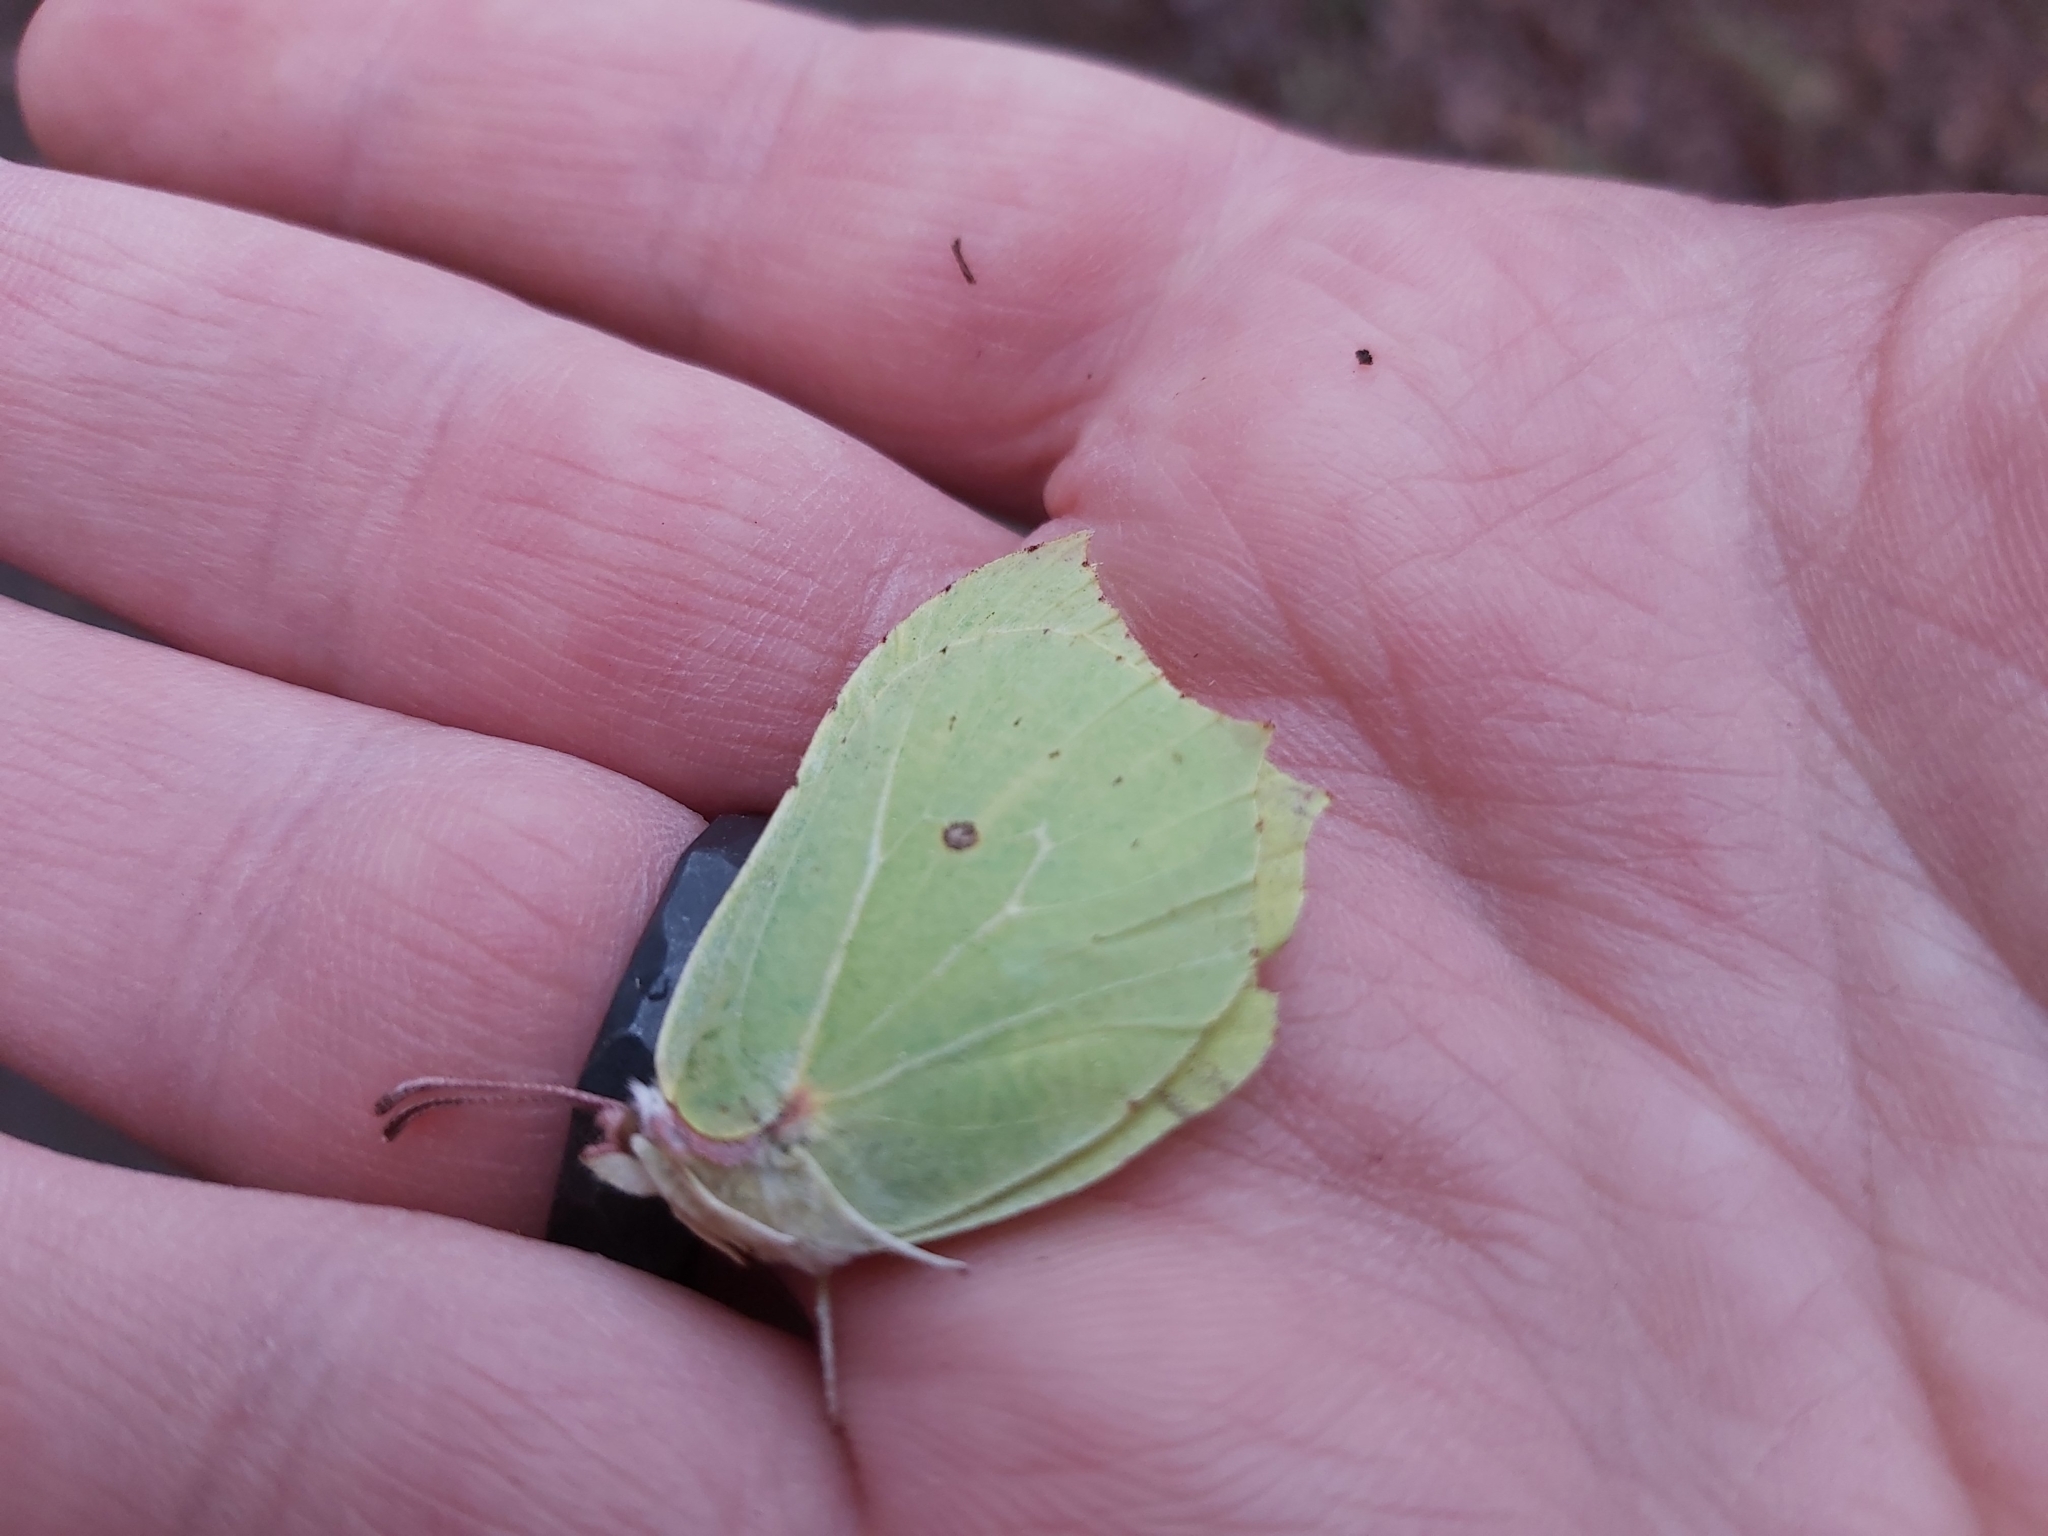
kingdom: Animalia
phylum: Arthropoda
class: Insecta
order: Lepidoptera
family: Pieridae
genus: Gonepteryx
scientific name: Gonepteryx rhamni
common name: Brimstone
